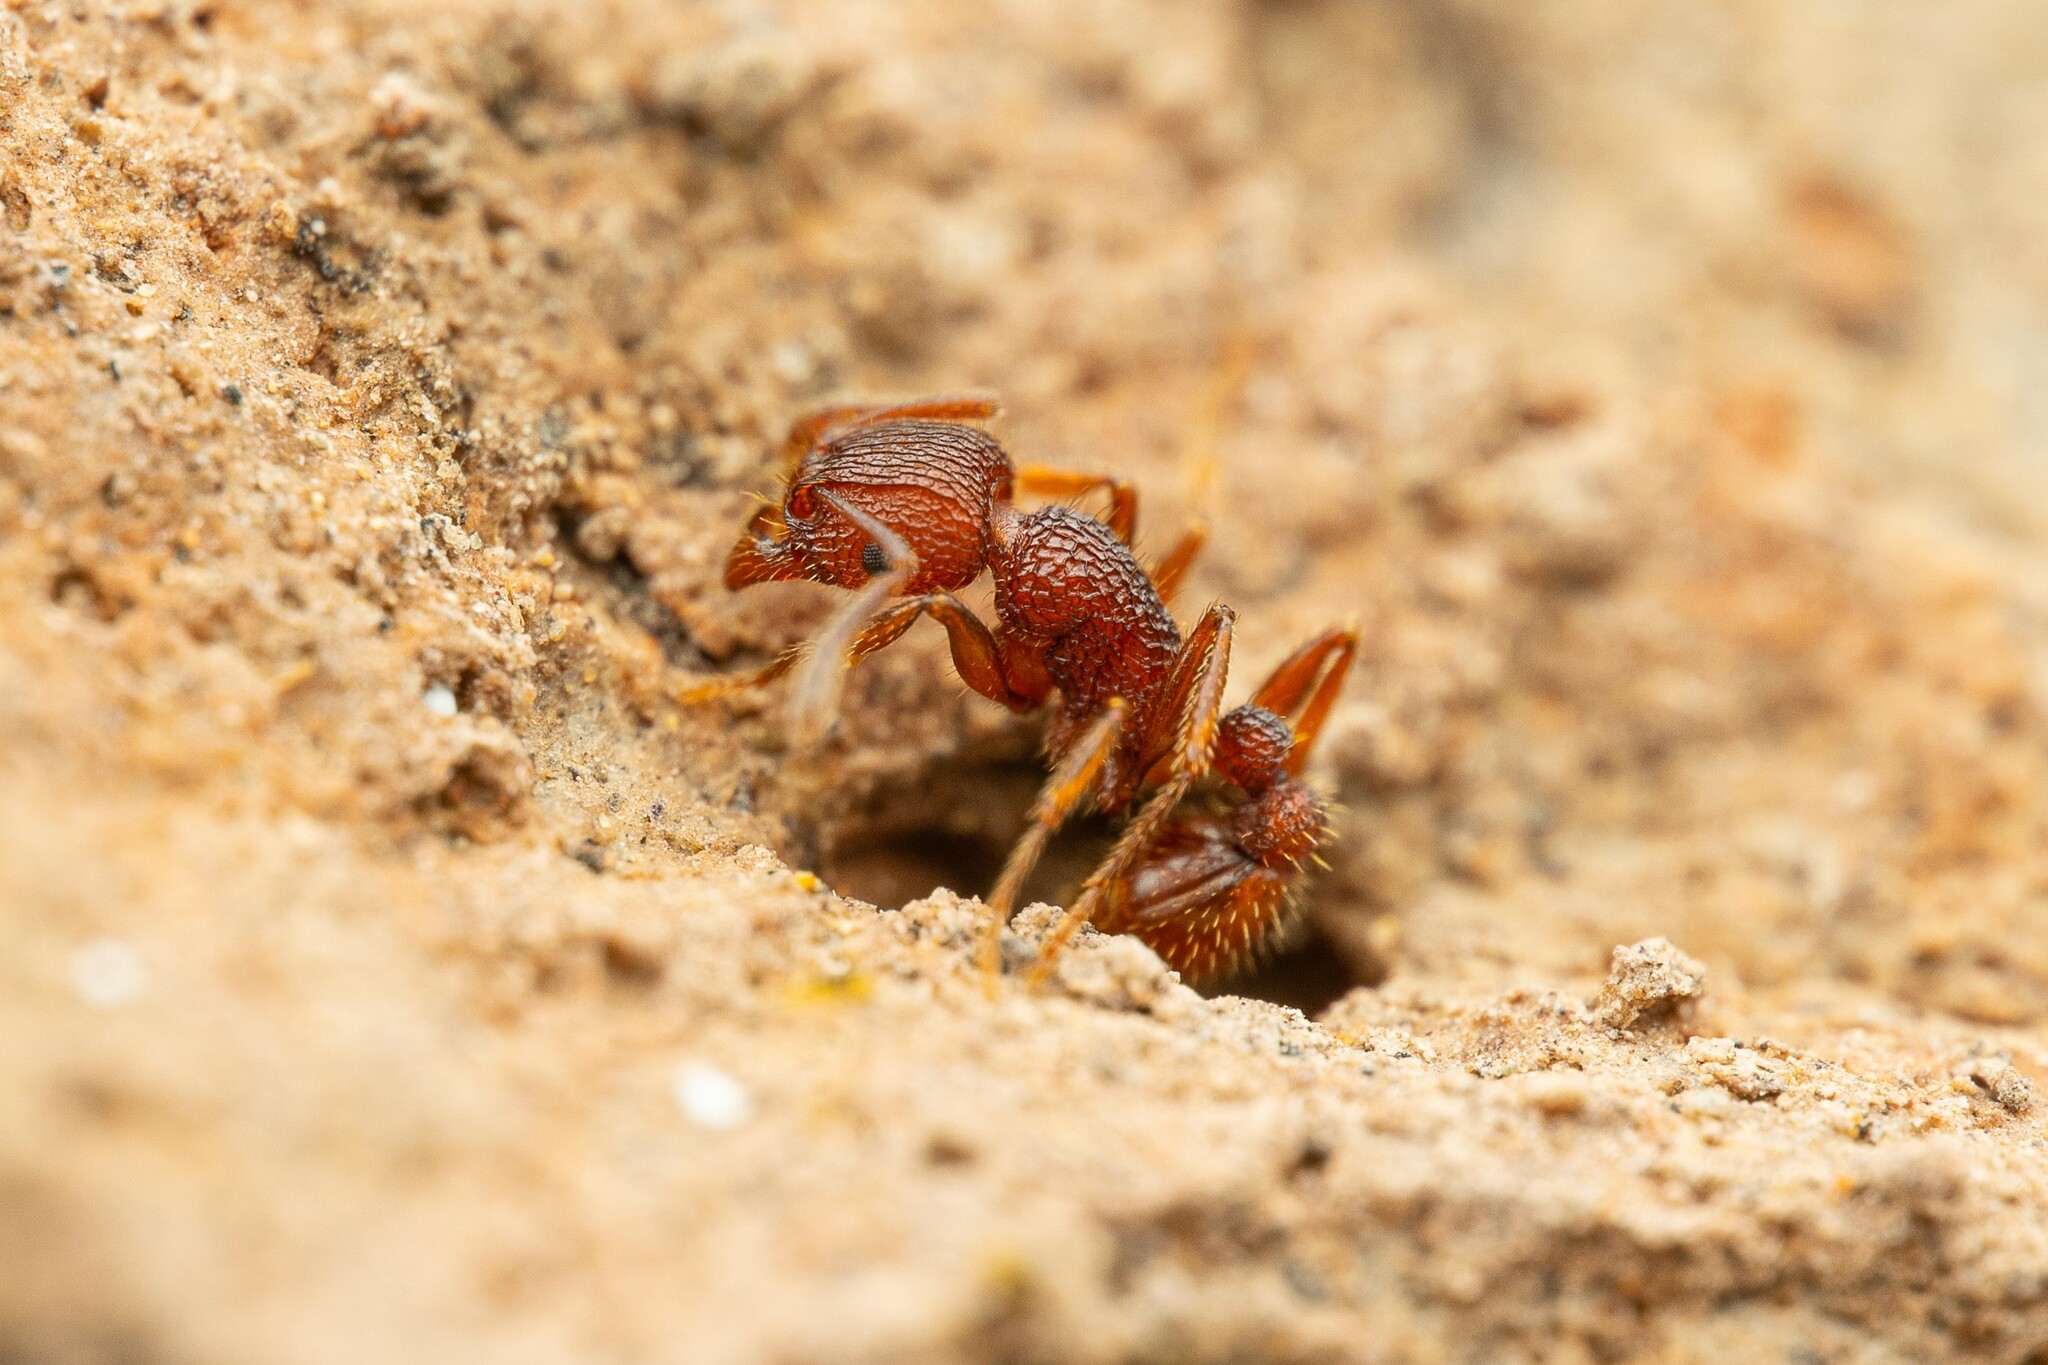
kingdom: Animalia
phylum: Arthropoda
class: Insecta
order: Hymenoptera
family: Formicidae
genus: Tetramorium
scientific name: Tetramorium hispidum
